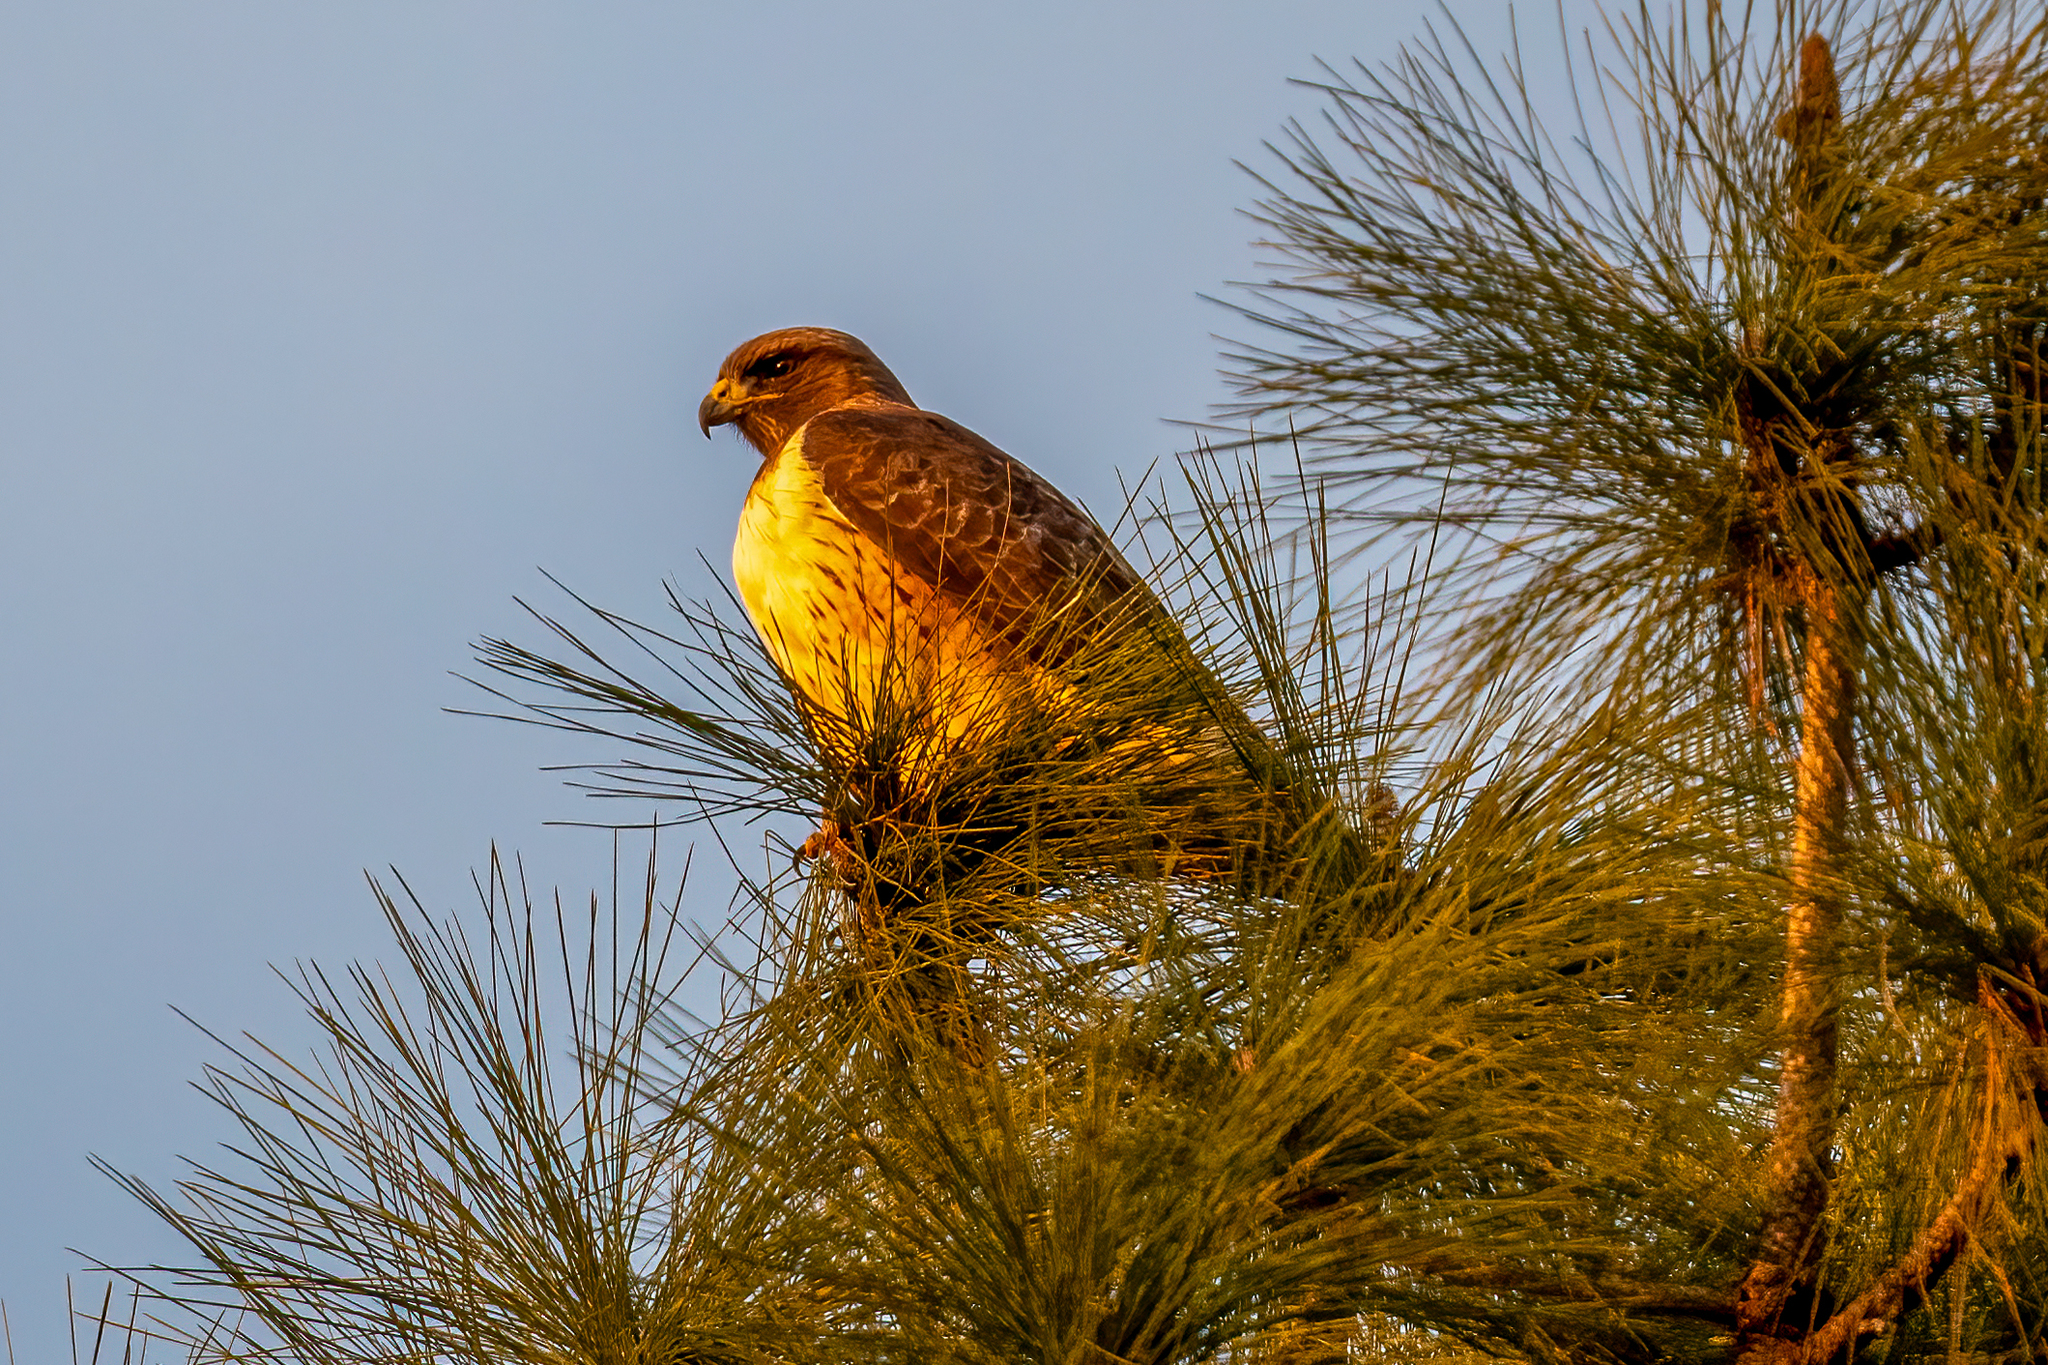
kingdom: Animalia
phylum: Chordata
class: Aves
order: Accipitriformes
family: Accipitridae
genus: Buteo
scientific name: Buteo jamaicensis
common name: Red-tailed hawk
